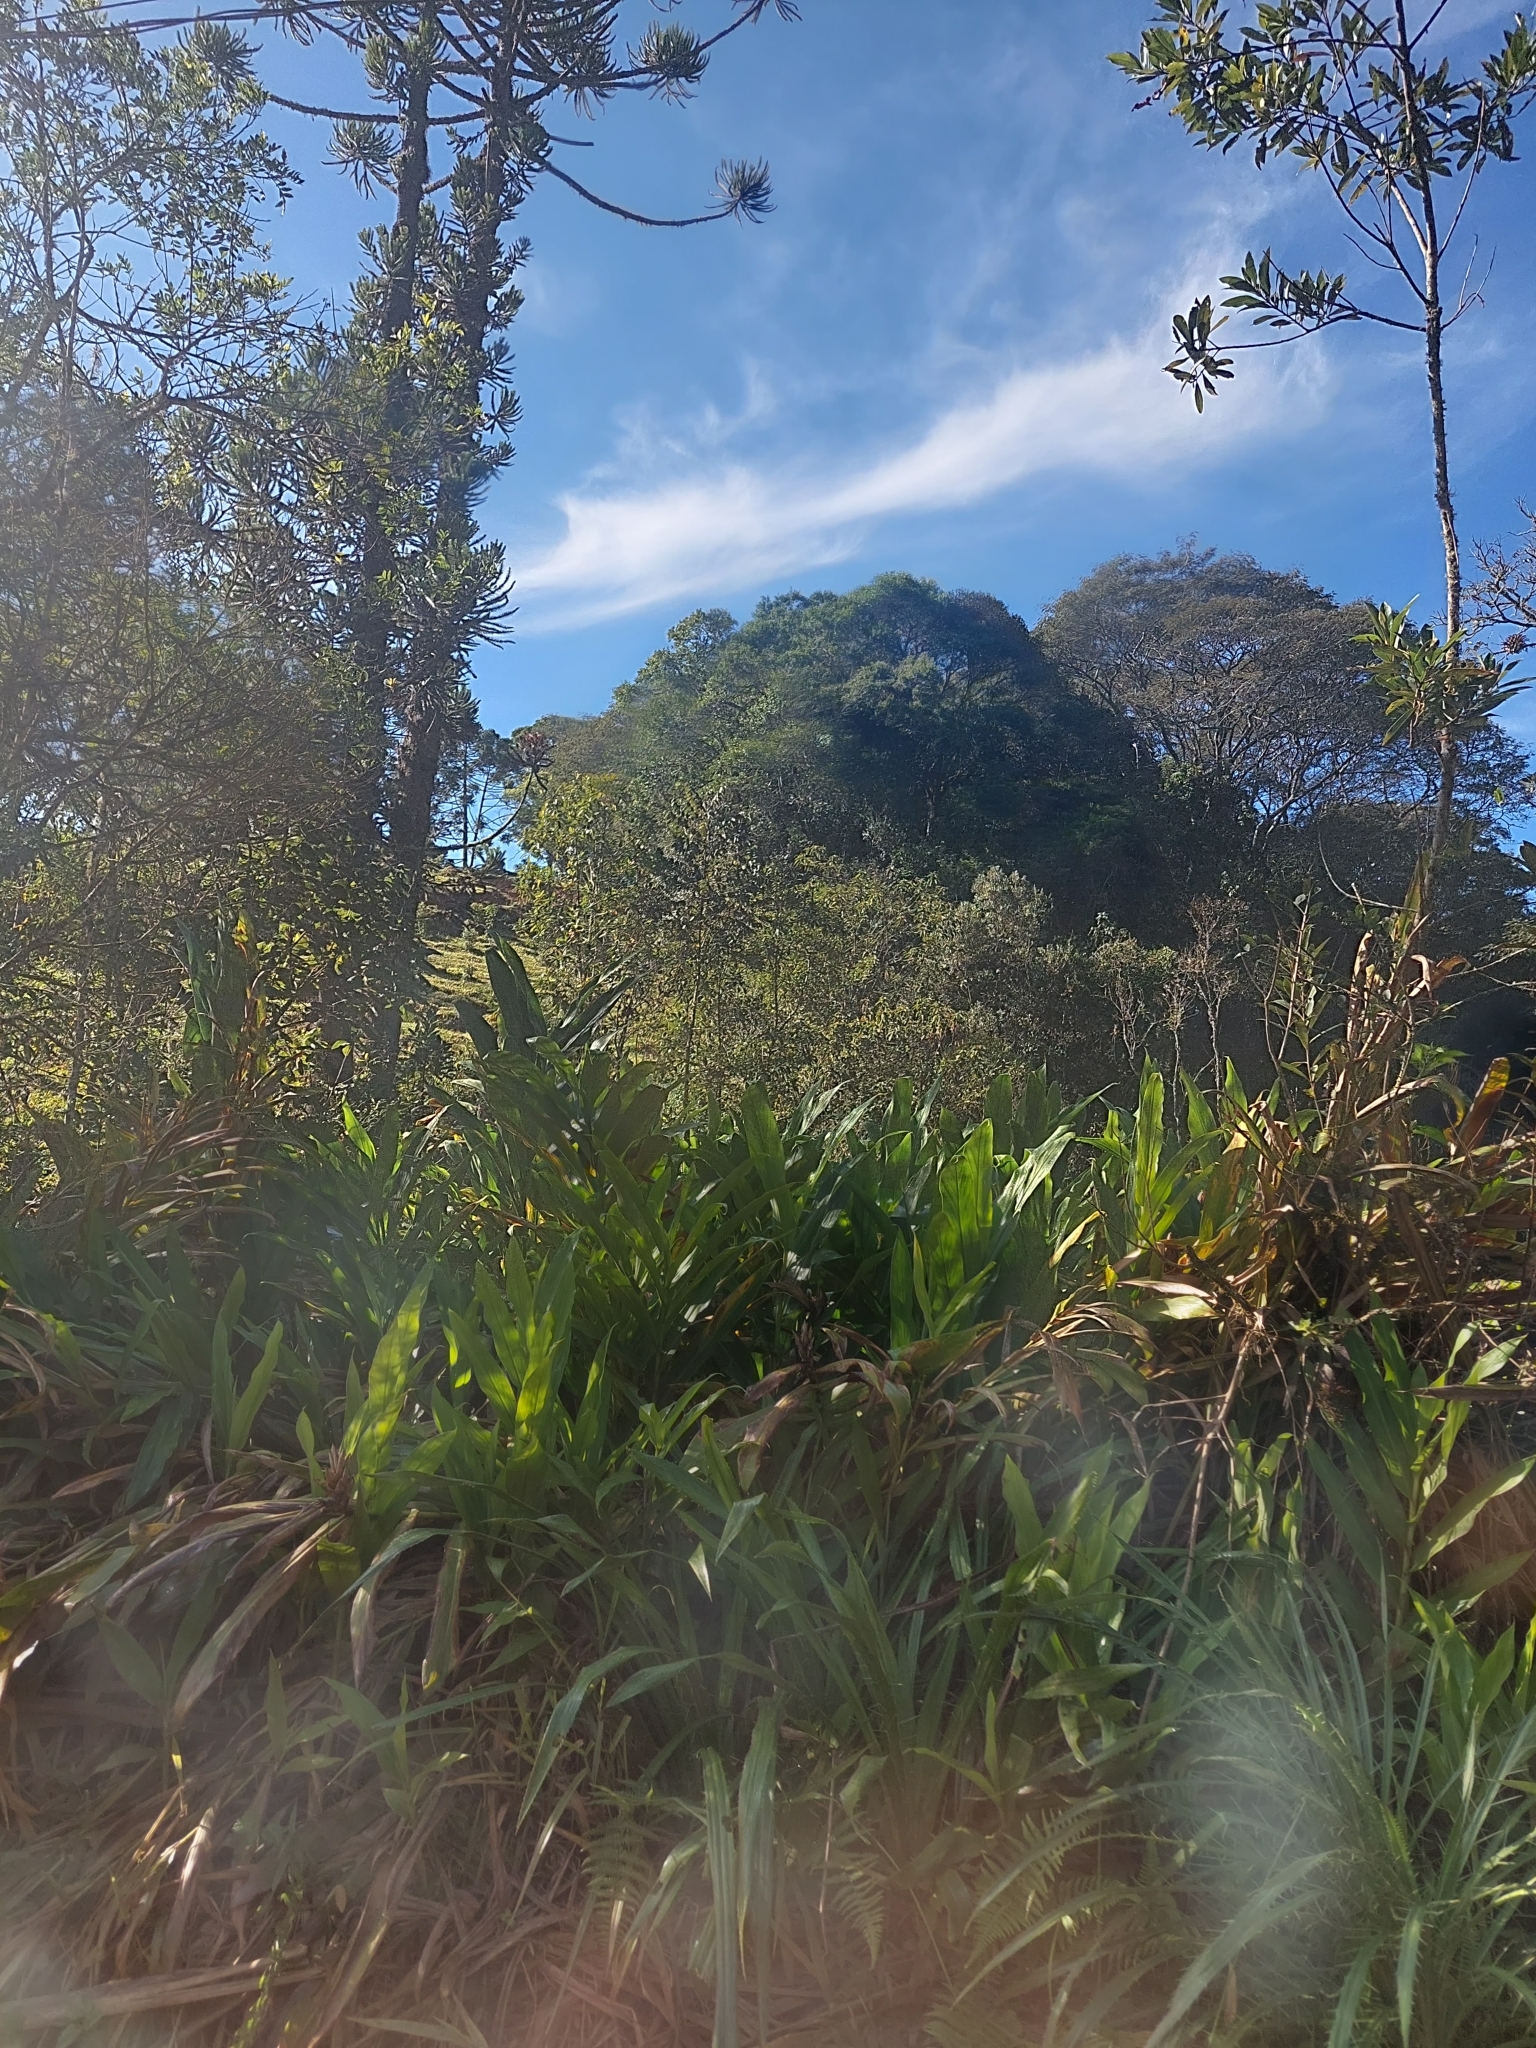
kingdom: Plantae
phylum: Tracheophyta
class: Liliopsida
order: Zingiberales
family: Zingiberaceae
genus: Hedychium
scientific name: Hedychium coronarium
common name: White garland-lily
